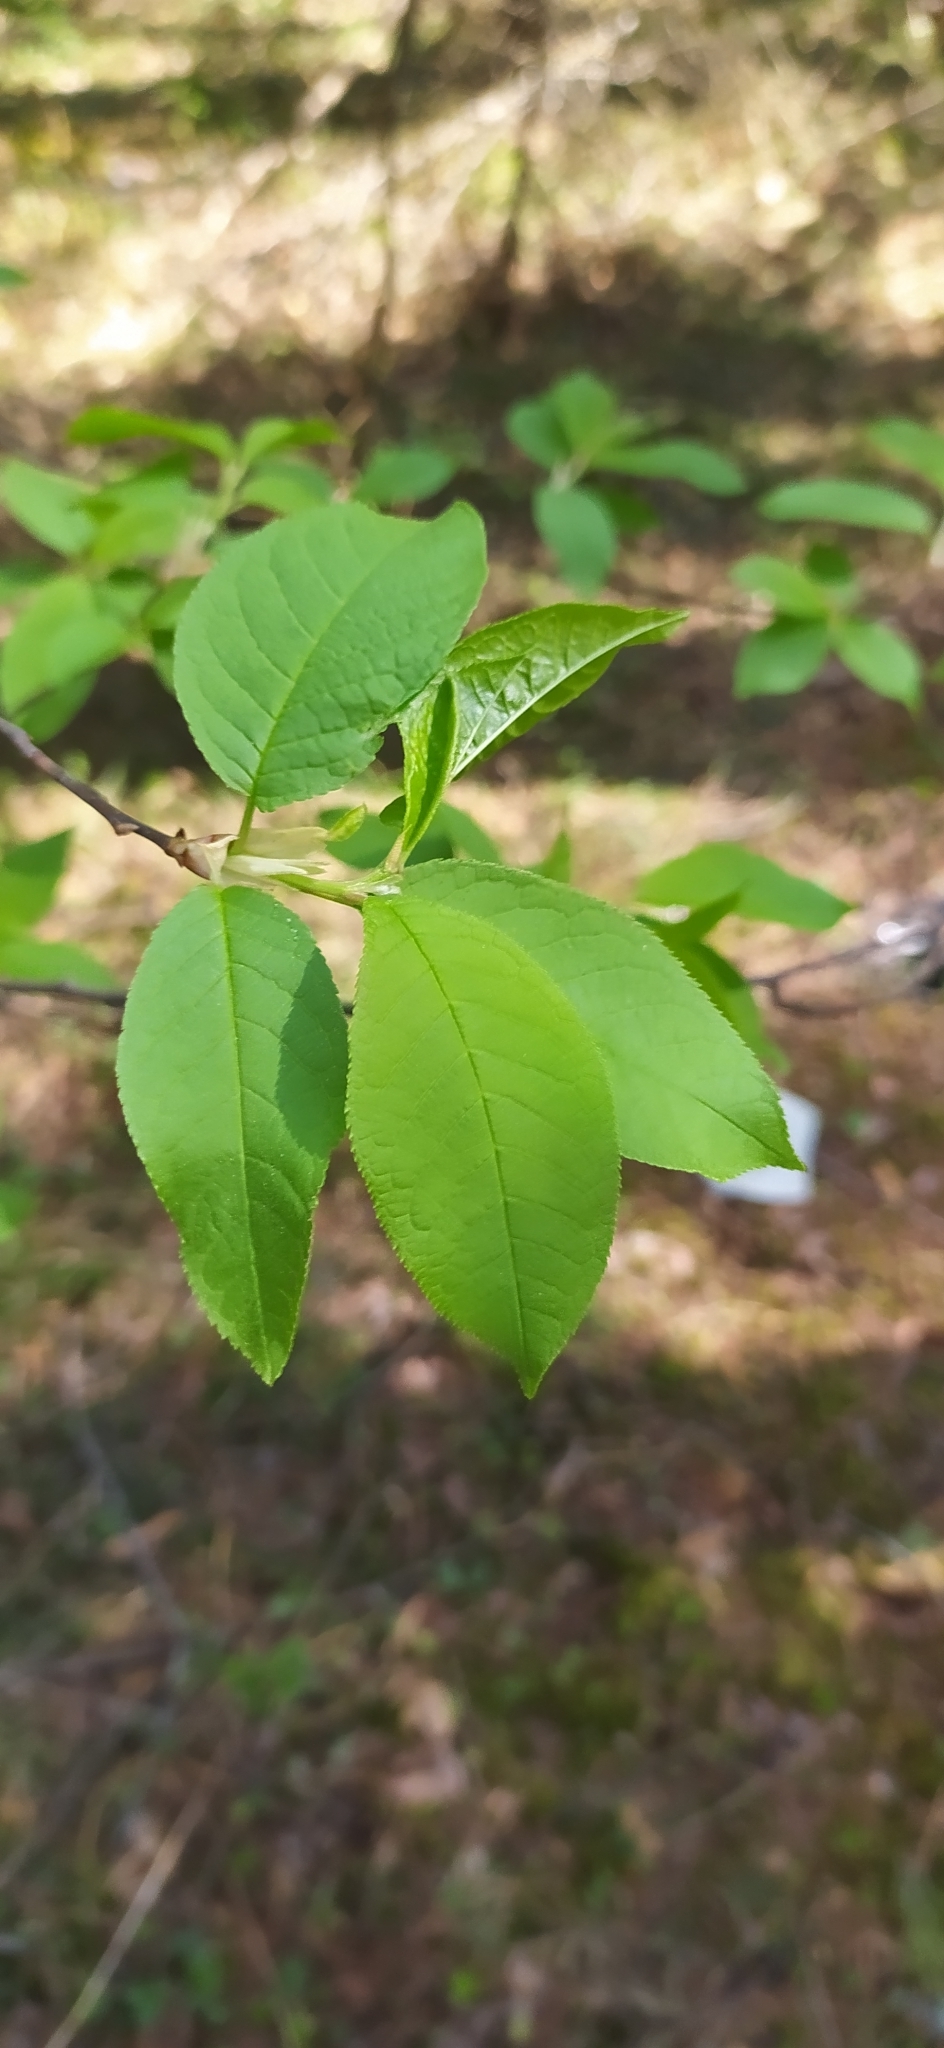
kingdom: Plantae
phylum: Tracheophyta
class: Magnoliopsida
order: Rosales
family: Rosaceae
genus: Prunus
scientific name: Prunus padus
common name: Bird cherry
